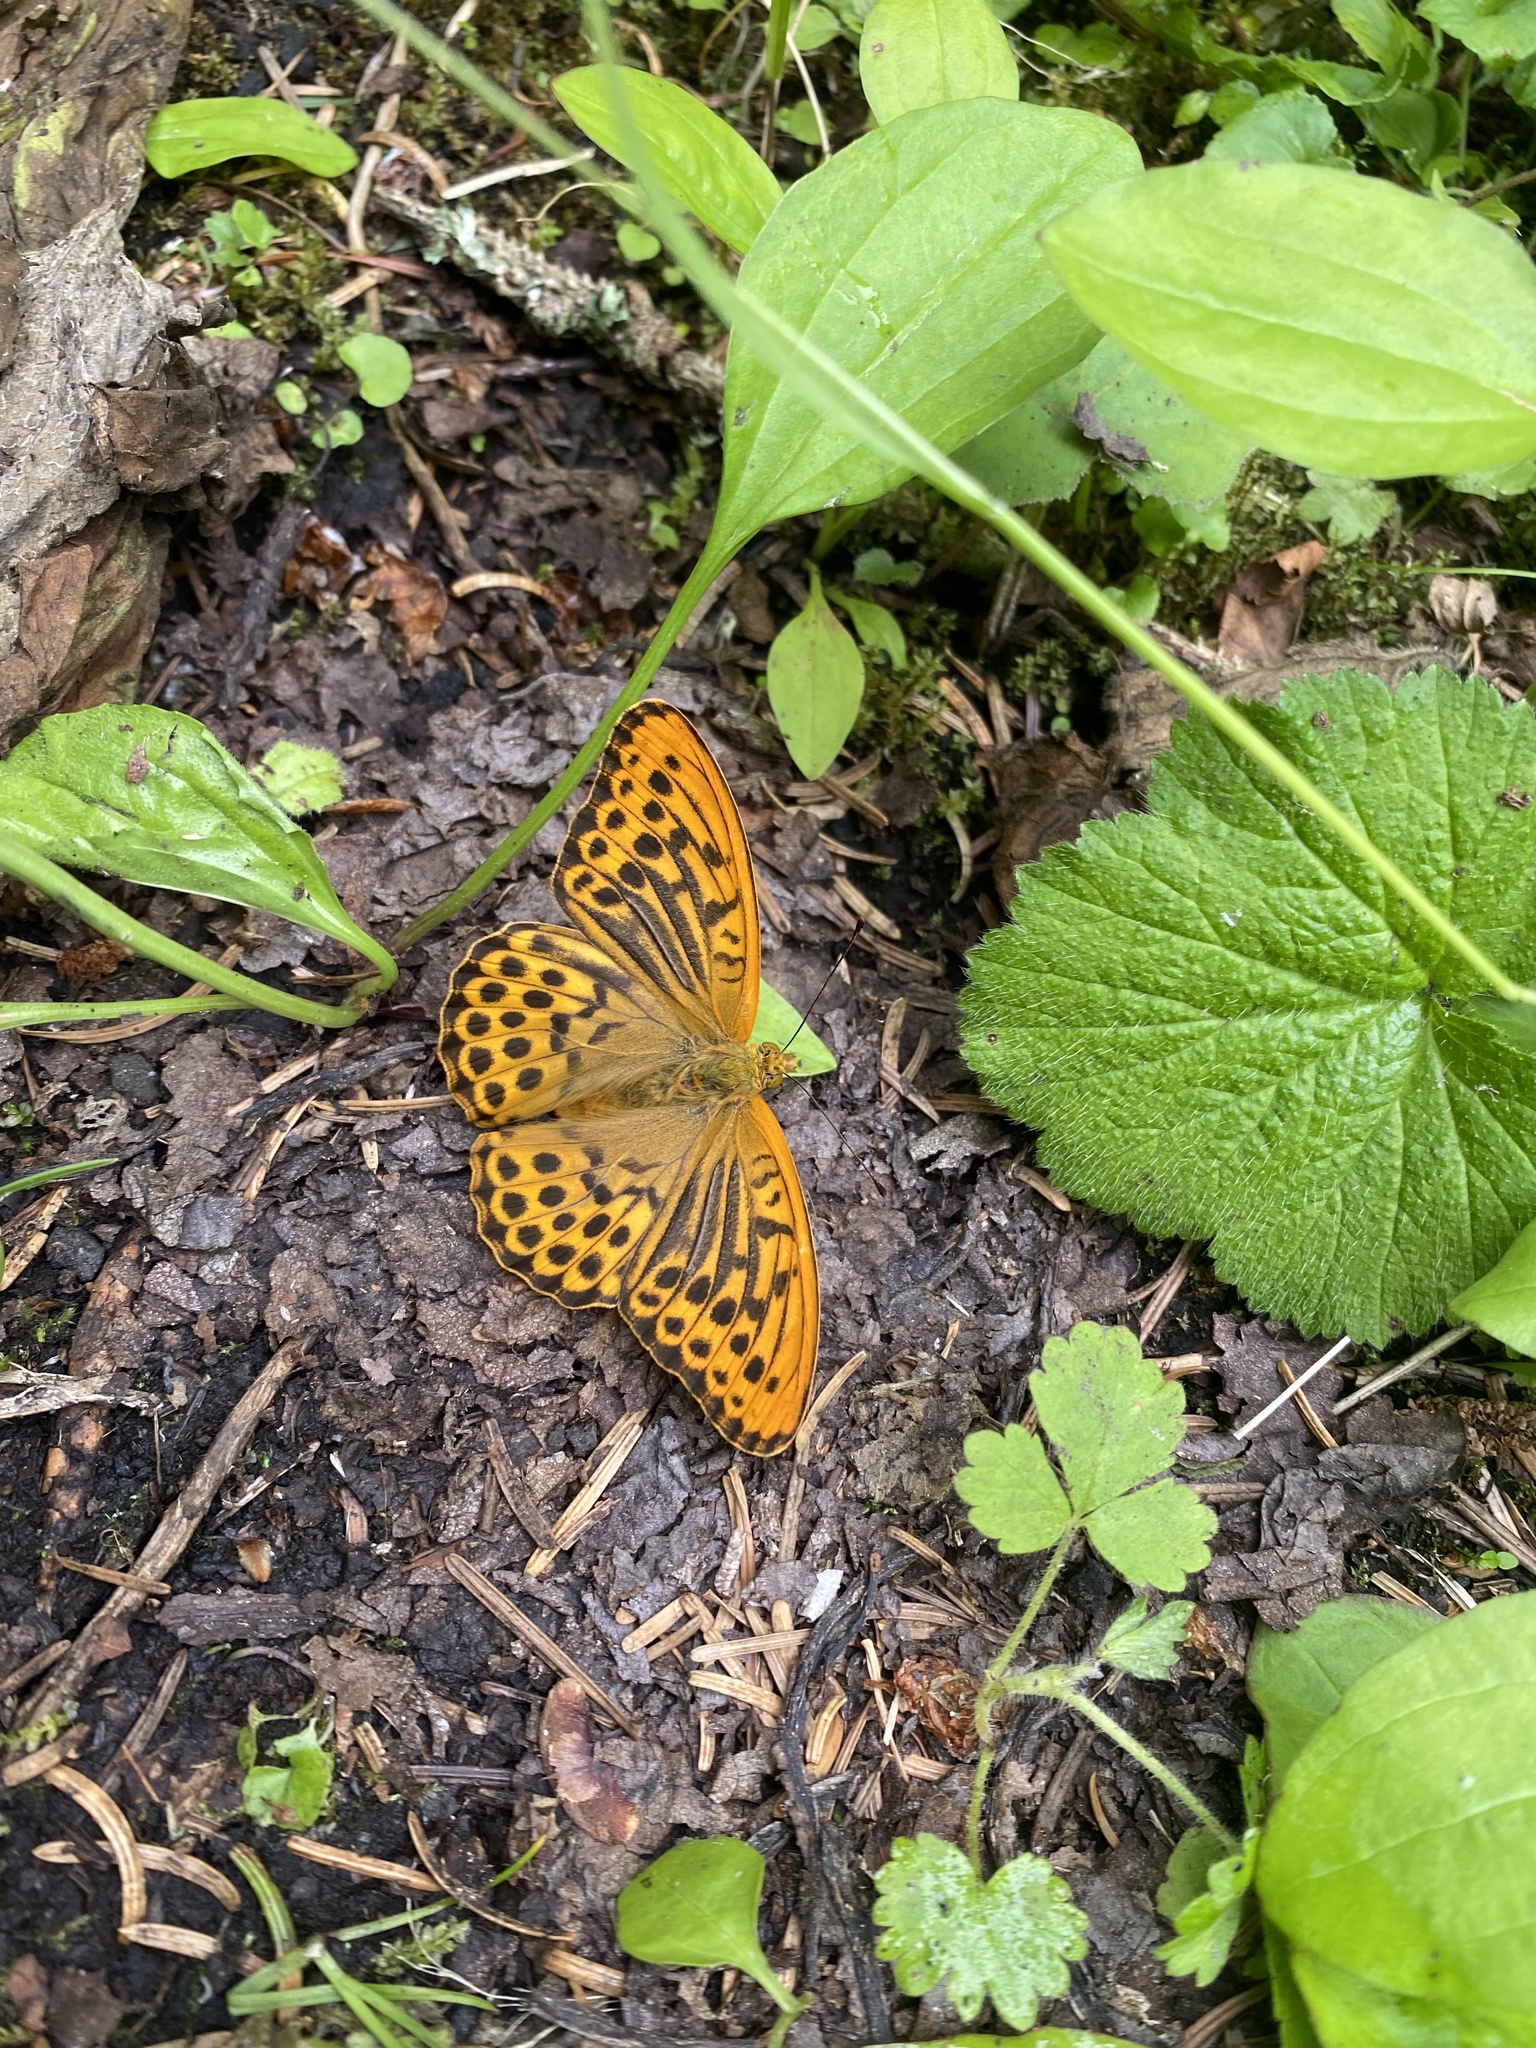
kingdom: Animalia
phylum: Arthropoda
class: Insecta
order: Lepidoptera
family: Nymphalidae
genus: Argynnis
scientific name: Argynnis paphia
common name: Silver-washed fritillary
